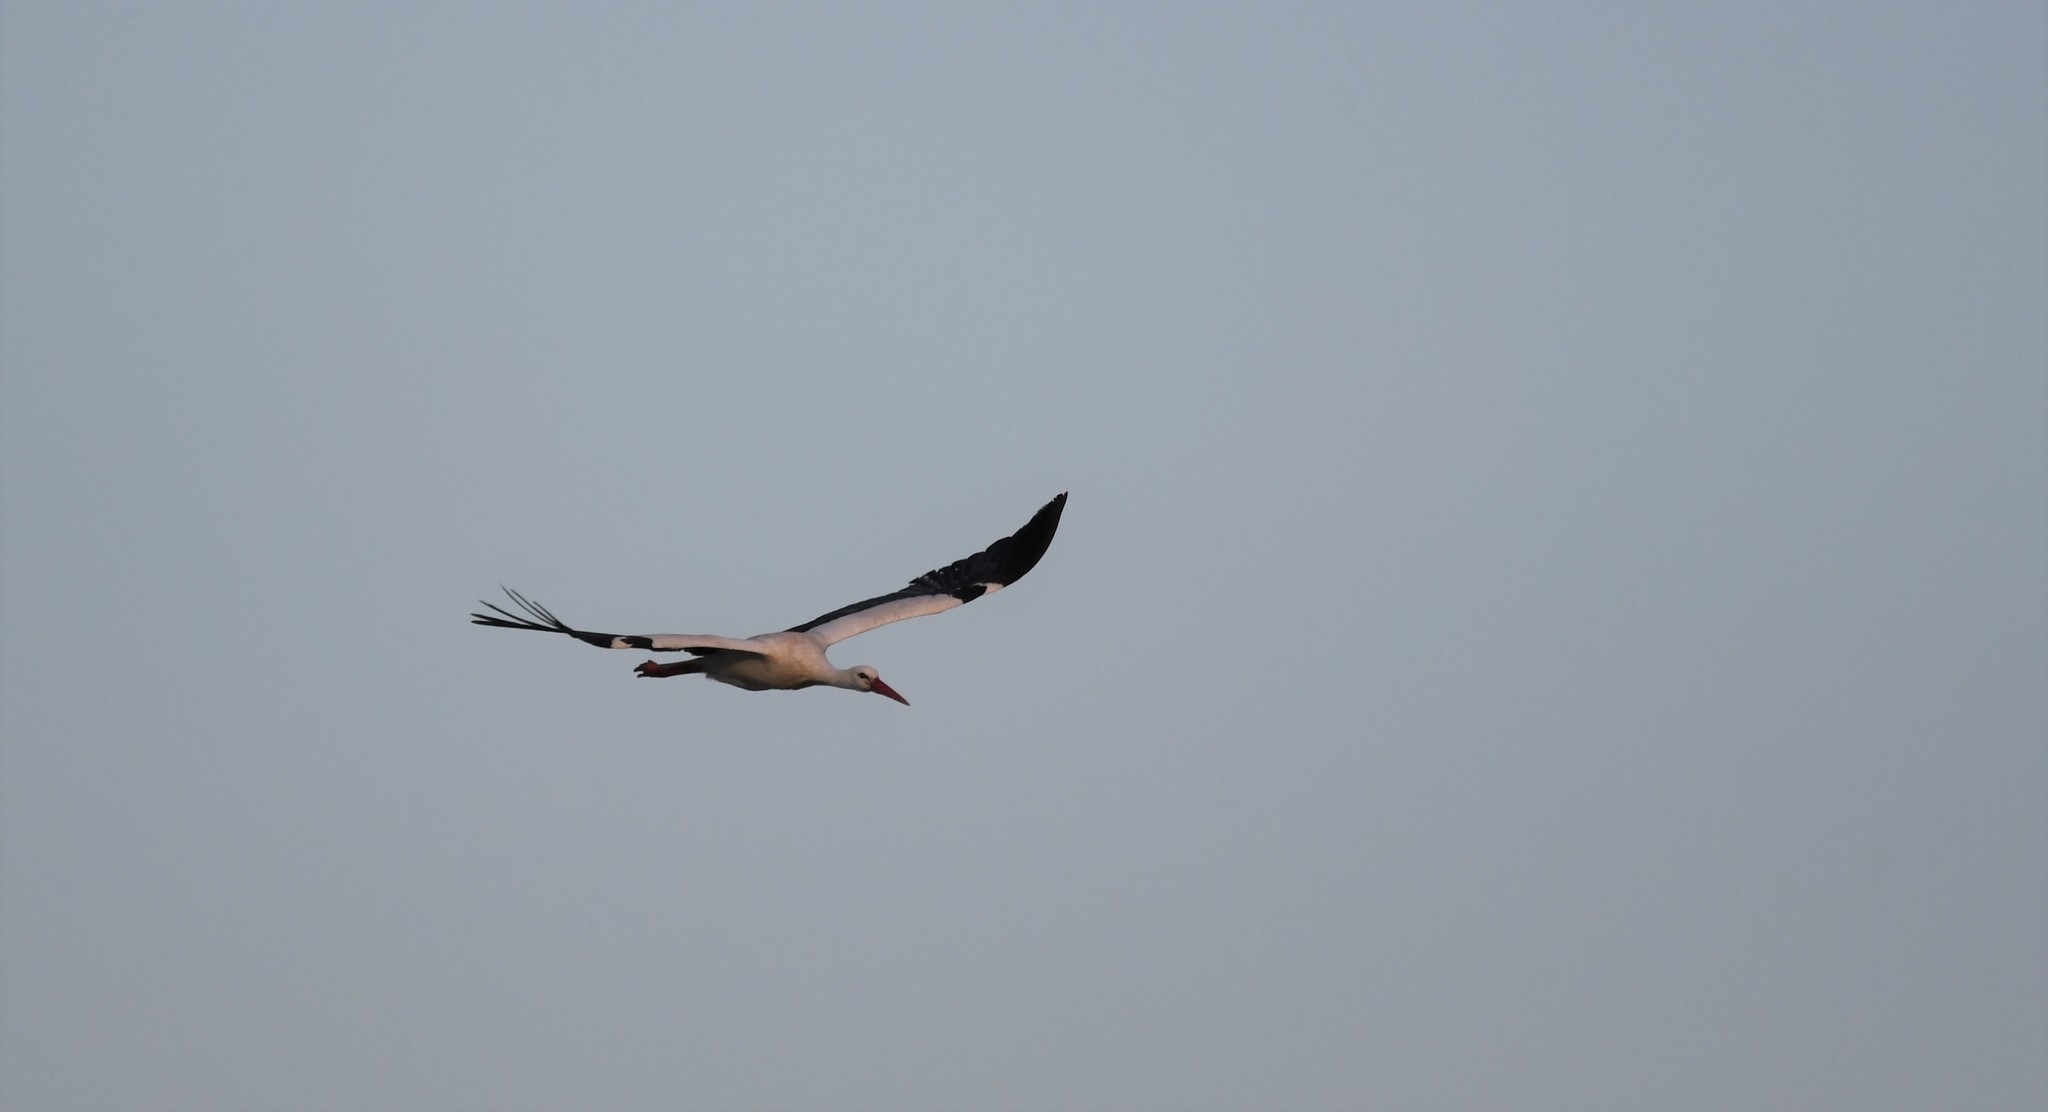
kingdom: Animalia
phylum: Chordata
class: Aves
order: Ciconiiformes
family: Ciconiidae
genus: Ciconia
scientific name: Ciconia ciconia
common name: White stork
